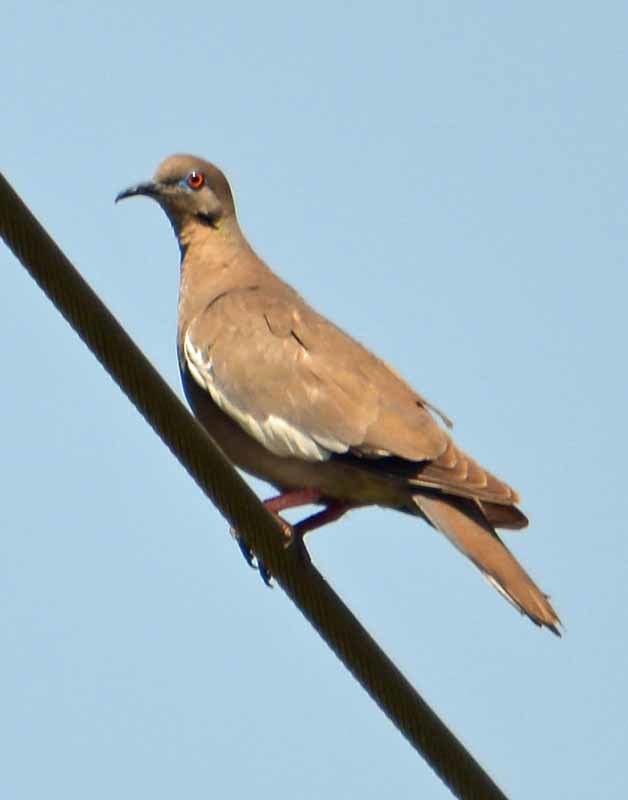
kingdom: Animalia
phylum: Chordata
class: Aves
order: Columbiformes
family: Columbidae
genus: Zenaida
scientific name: Zenaida asiatica
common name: White-winged dove
